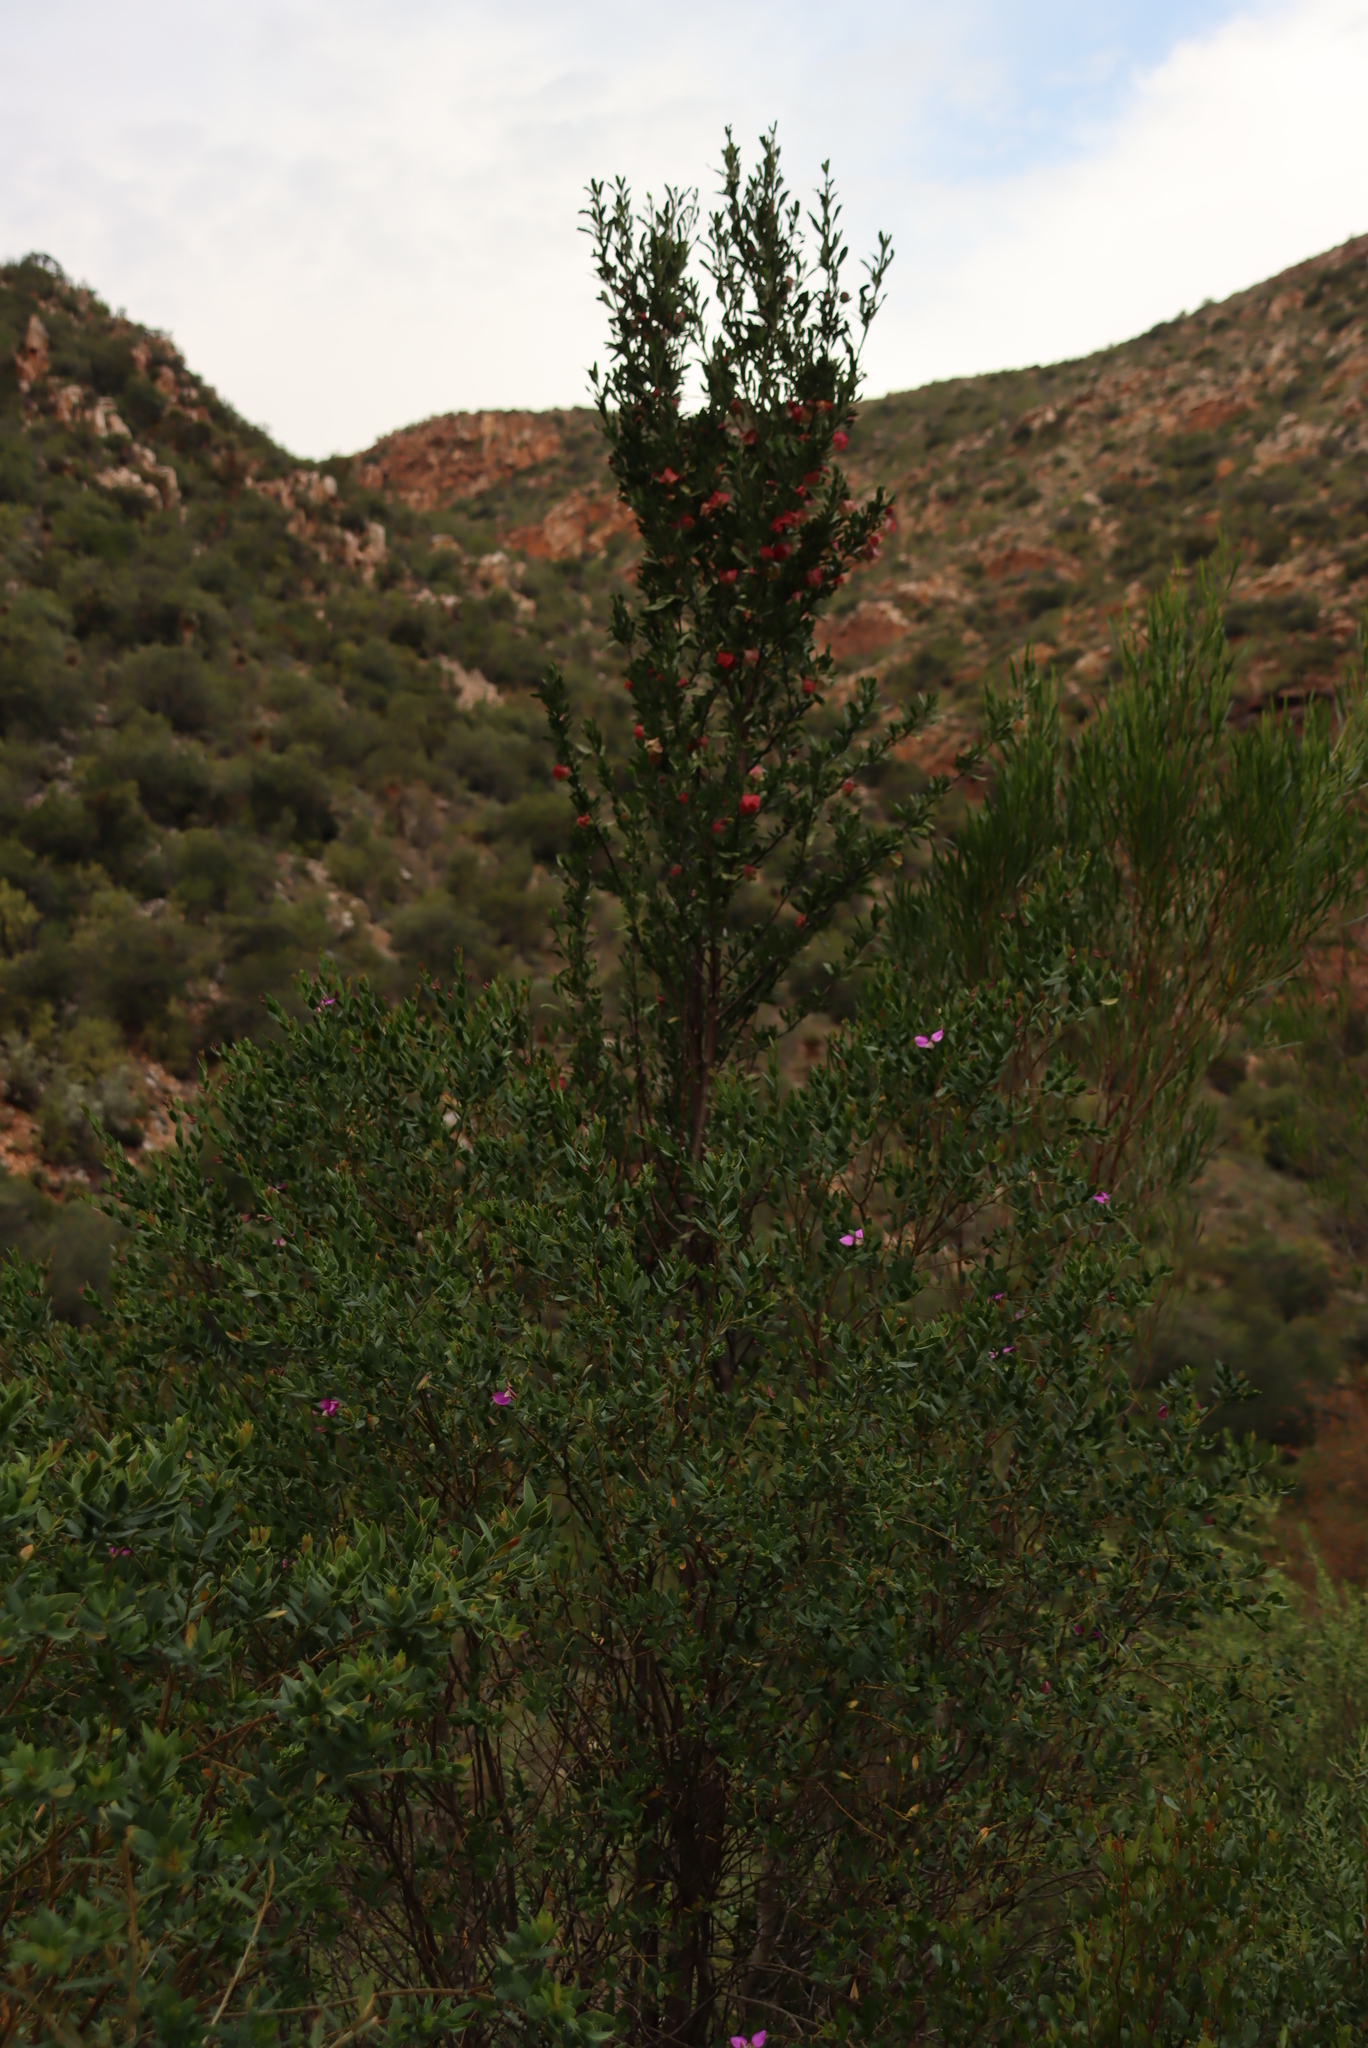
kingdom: Plantae
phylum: Tracheophyta
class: Magnoliopsida
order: Sapindales
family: Meliaceae
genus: Nymania
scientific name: Nymania capensis
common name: Chinese lantern tree
